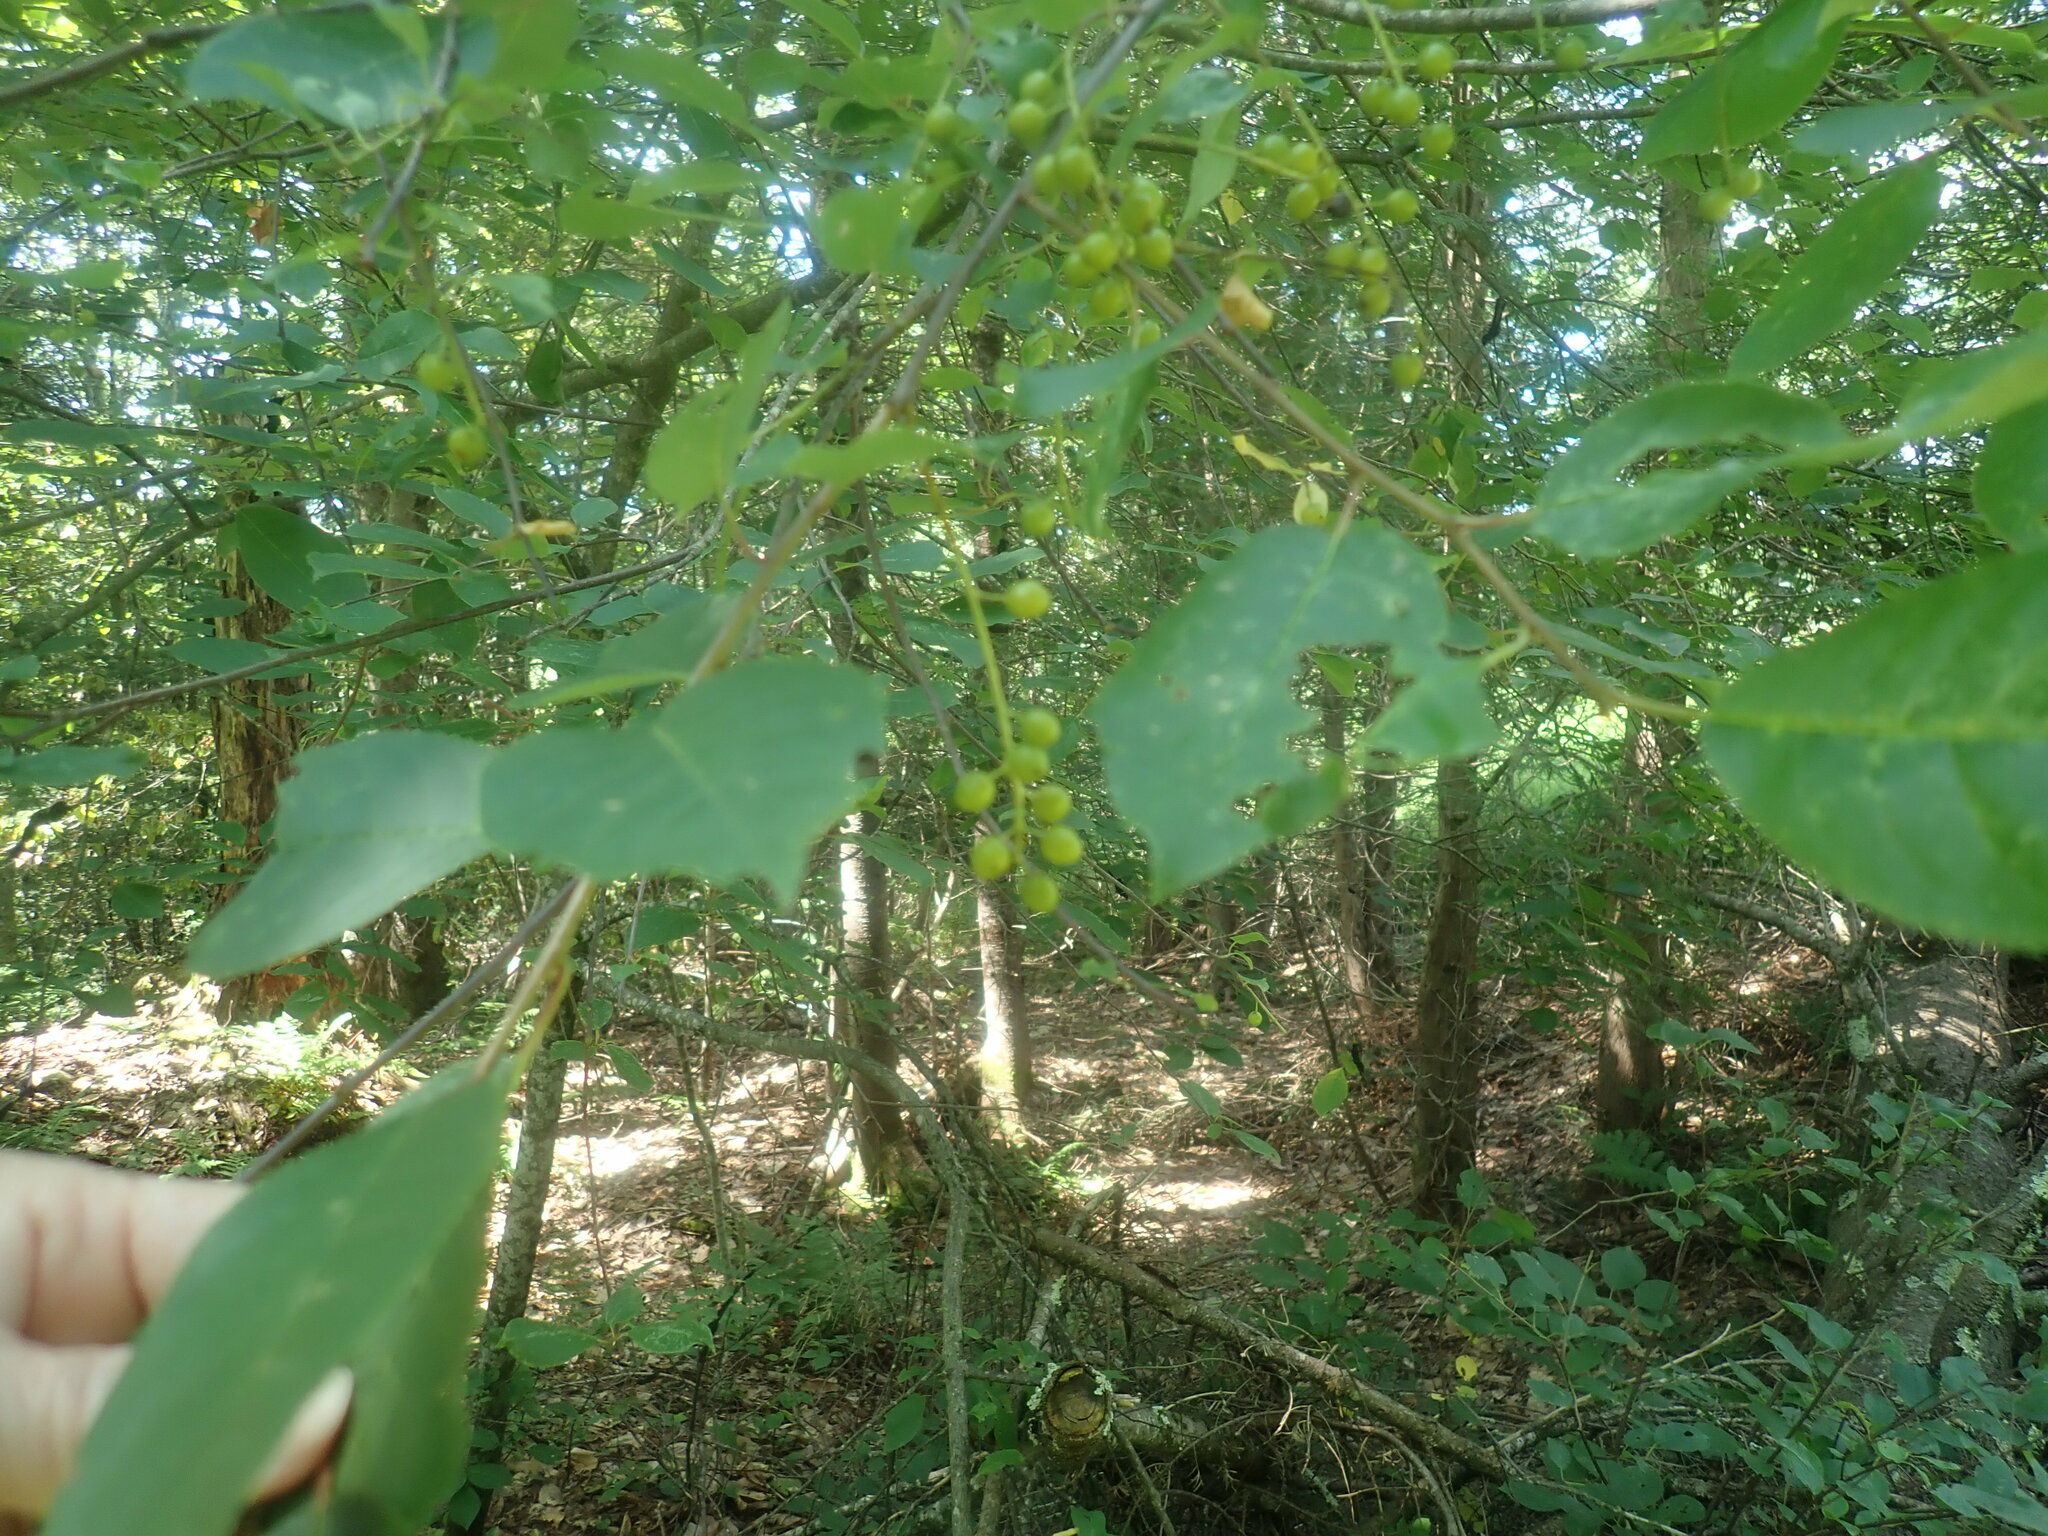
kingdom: Plantae
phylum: Tracheophyta
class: Magnoliopsida
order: Rosales
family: Rosaceae
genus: Prunus
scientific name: Prunus virginiana
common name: Chokecherry
